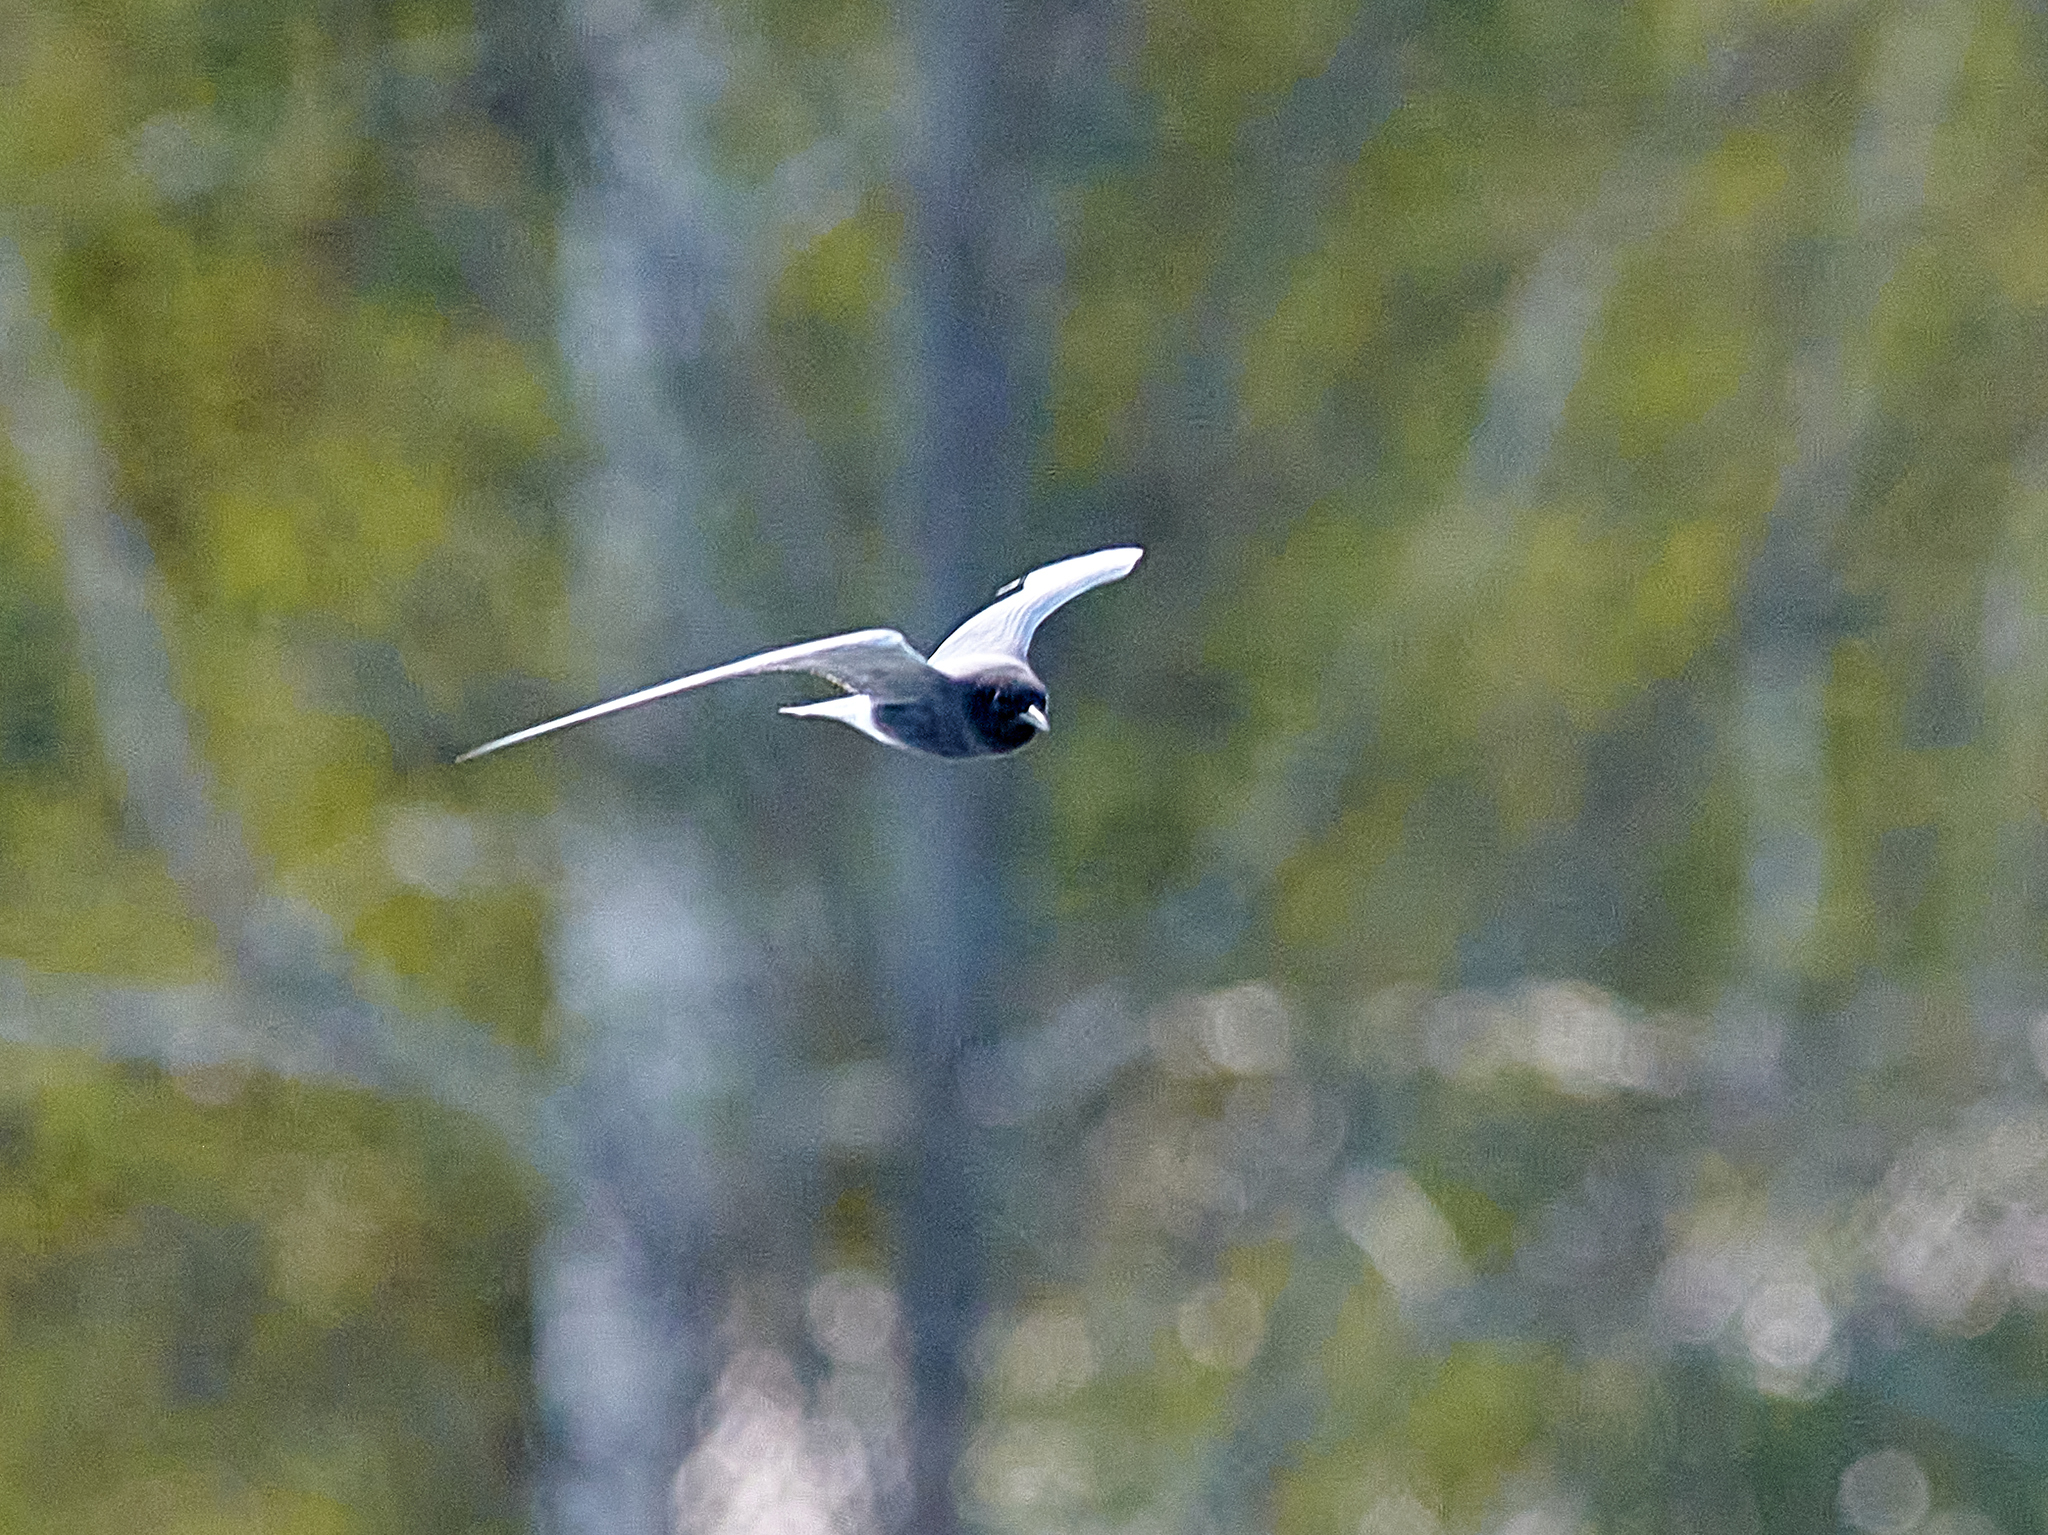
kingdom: Animalia
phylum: Chordata
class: Aves
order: Charadriiformes
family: Laridae
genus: Chlidonias
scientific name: Chlidonias niger
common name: Black tern
